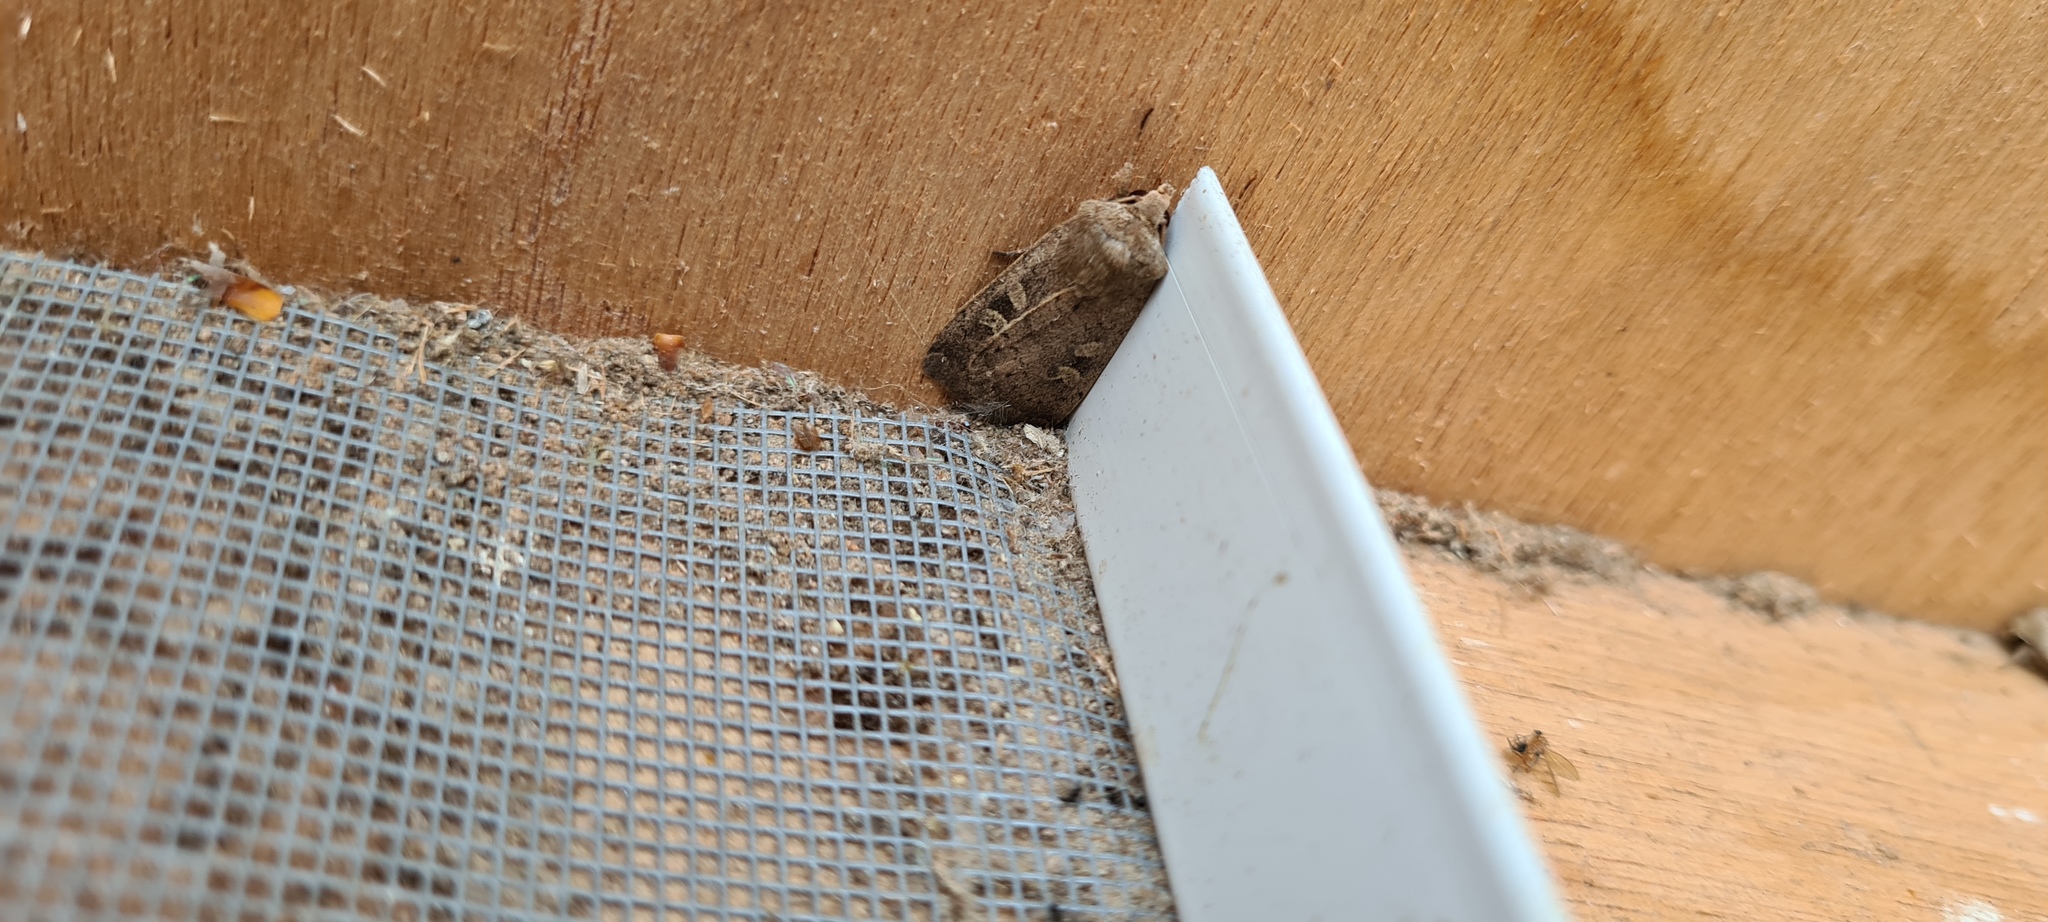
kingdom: Animalia
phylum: Arthropoda
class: Insecta
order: Lepidoptera
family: Noctuidae
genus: Xestia
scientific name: Xestia xanthographa
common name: Square-spot rustic
